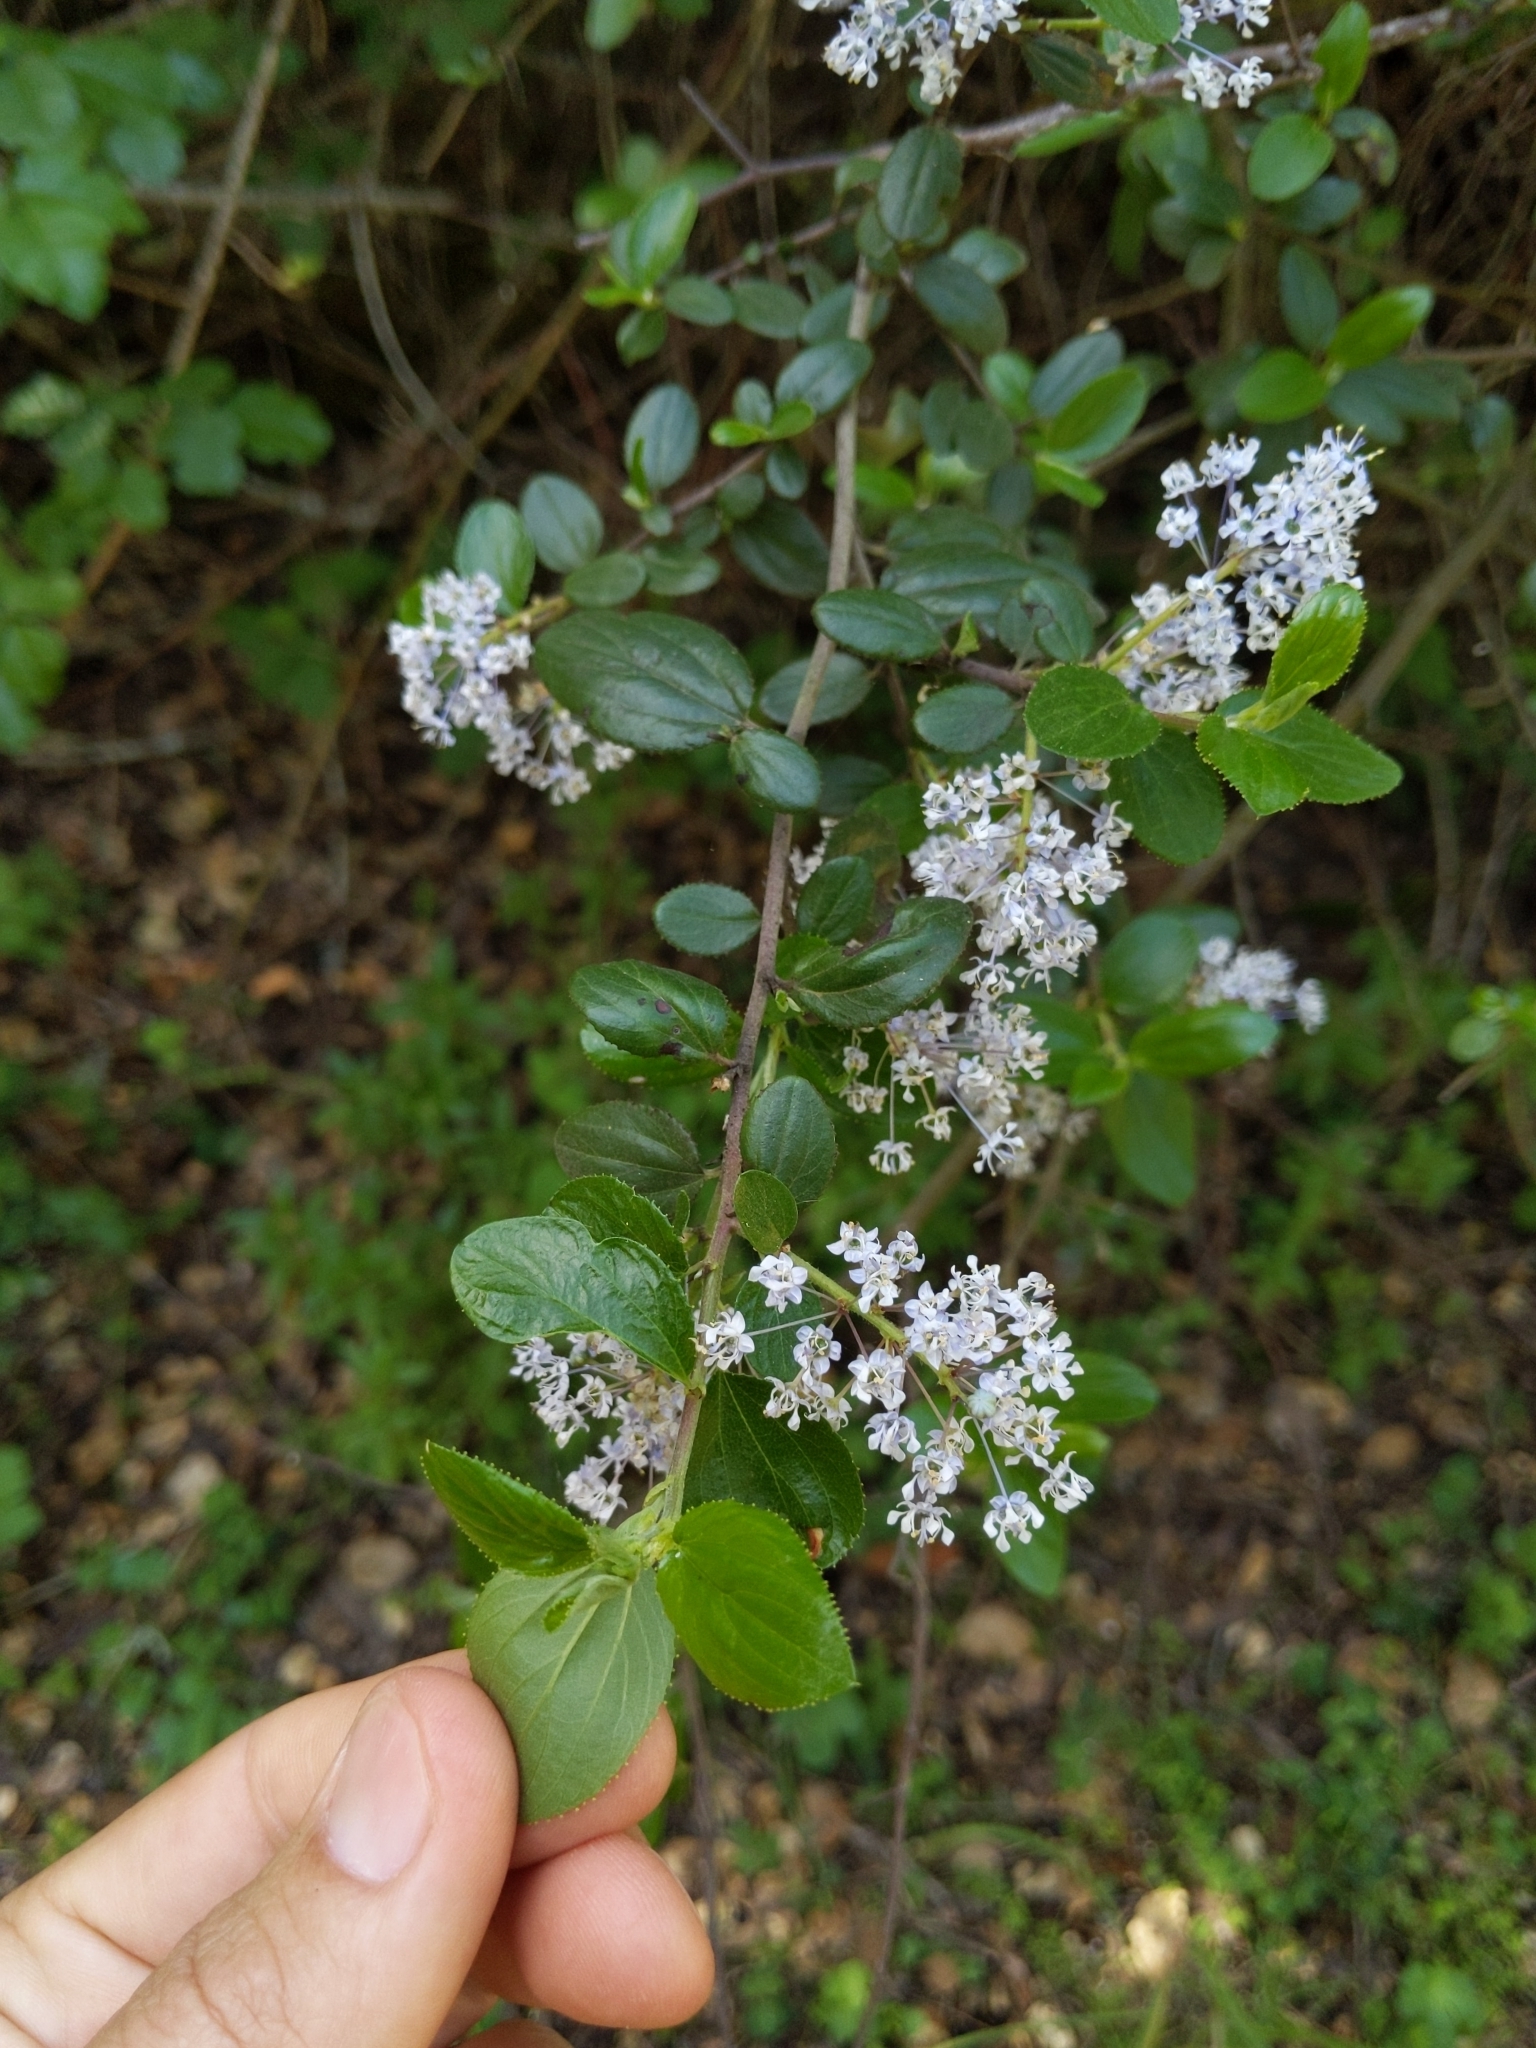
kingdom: Plantae
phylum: Tracheophyta
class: Magnoliopsida
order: Rosales
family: Rhamnaceae
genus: Ceanothus
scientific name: Ceanothus oliganthus
